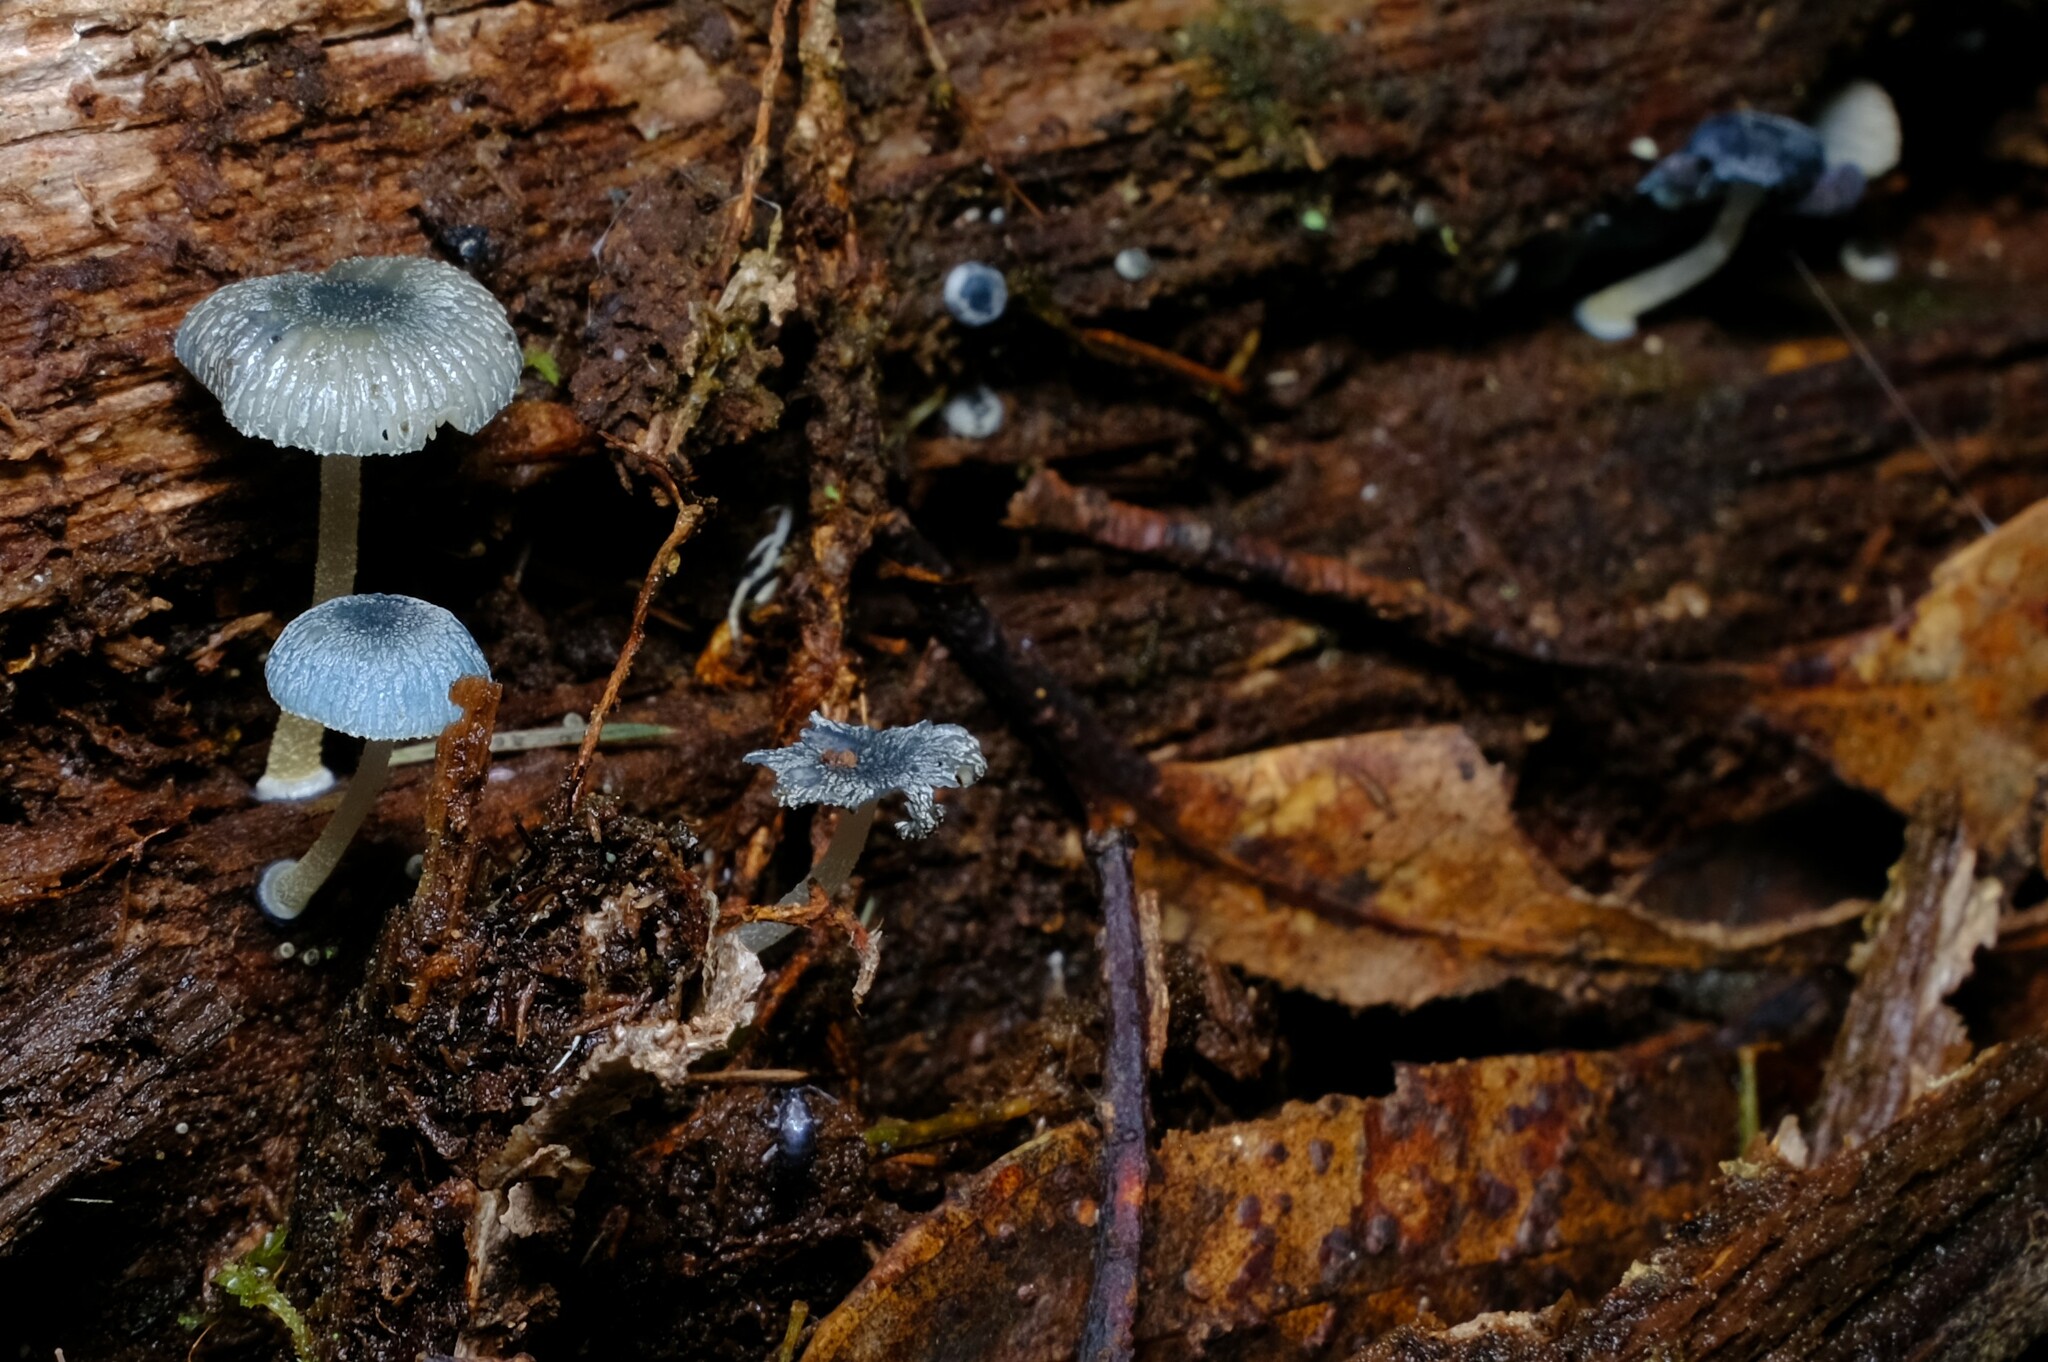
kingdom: Fungi
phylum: Basidiomycota
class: Agaricomycetes
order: Agaricales
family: Mycenaceae
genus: Mycena
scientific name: Mycena interrupta
